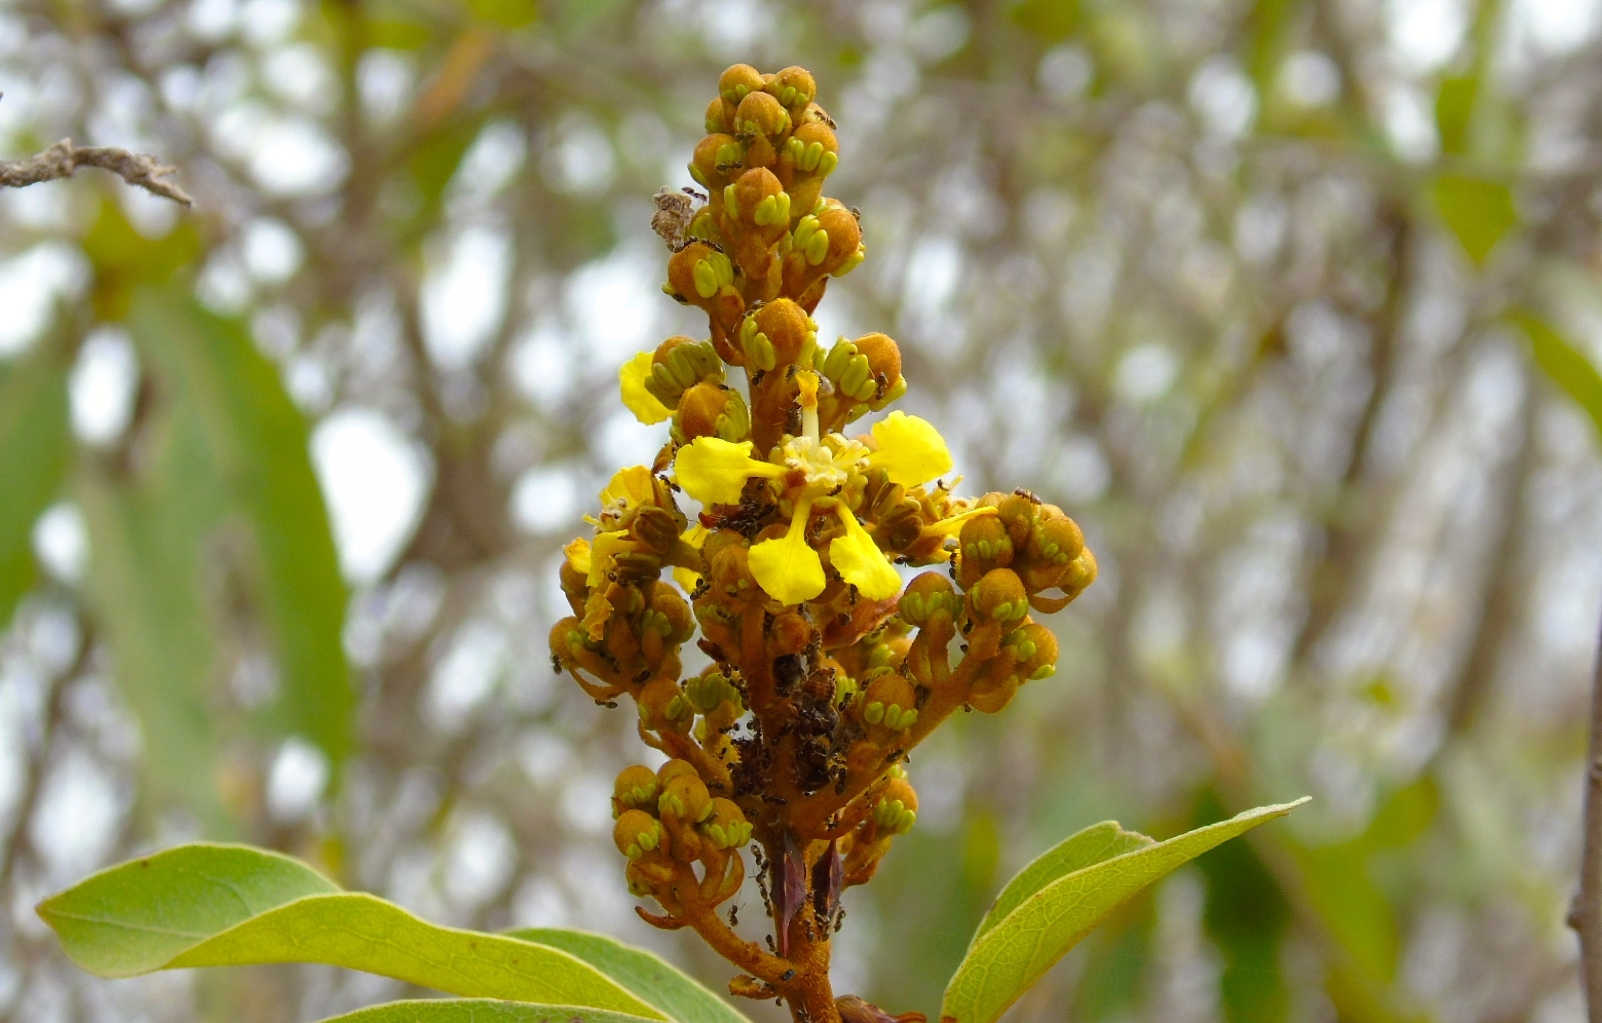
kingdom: Plantae
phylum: Tracheophyta
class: Magnoliopsida
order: Malpighiales
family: Malpighiaceae
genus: Heteropterys
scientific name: Heteropterys laurifolia
